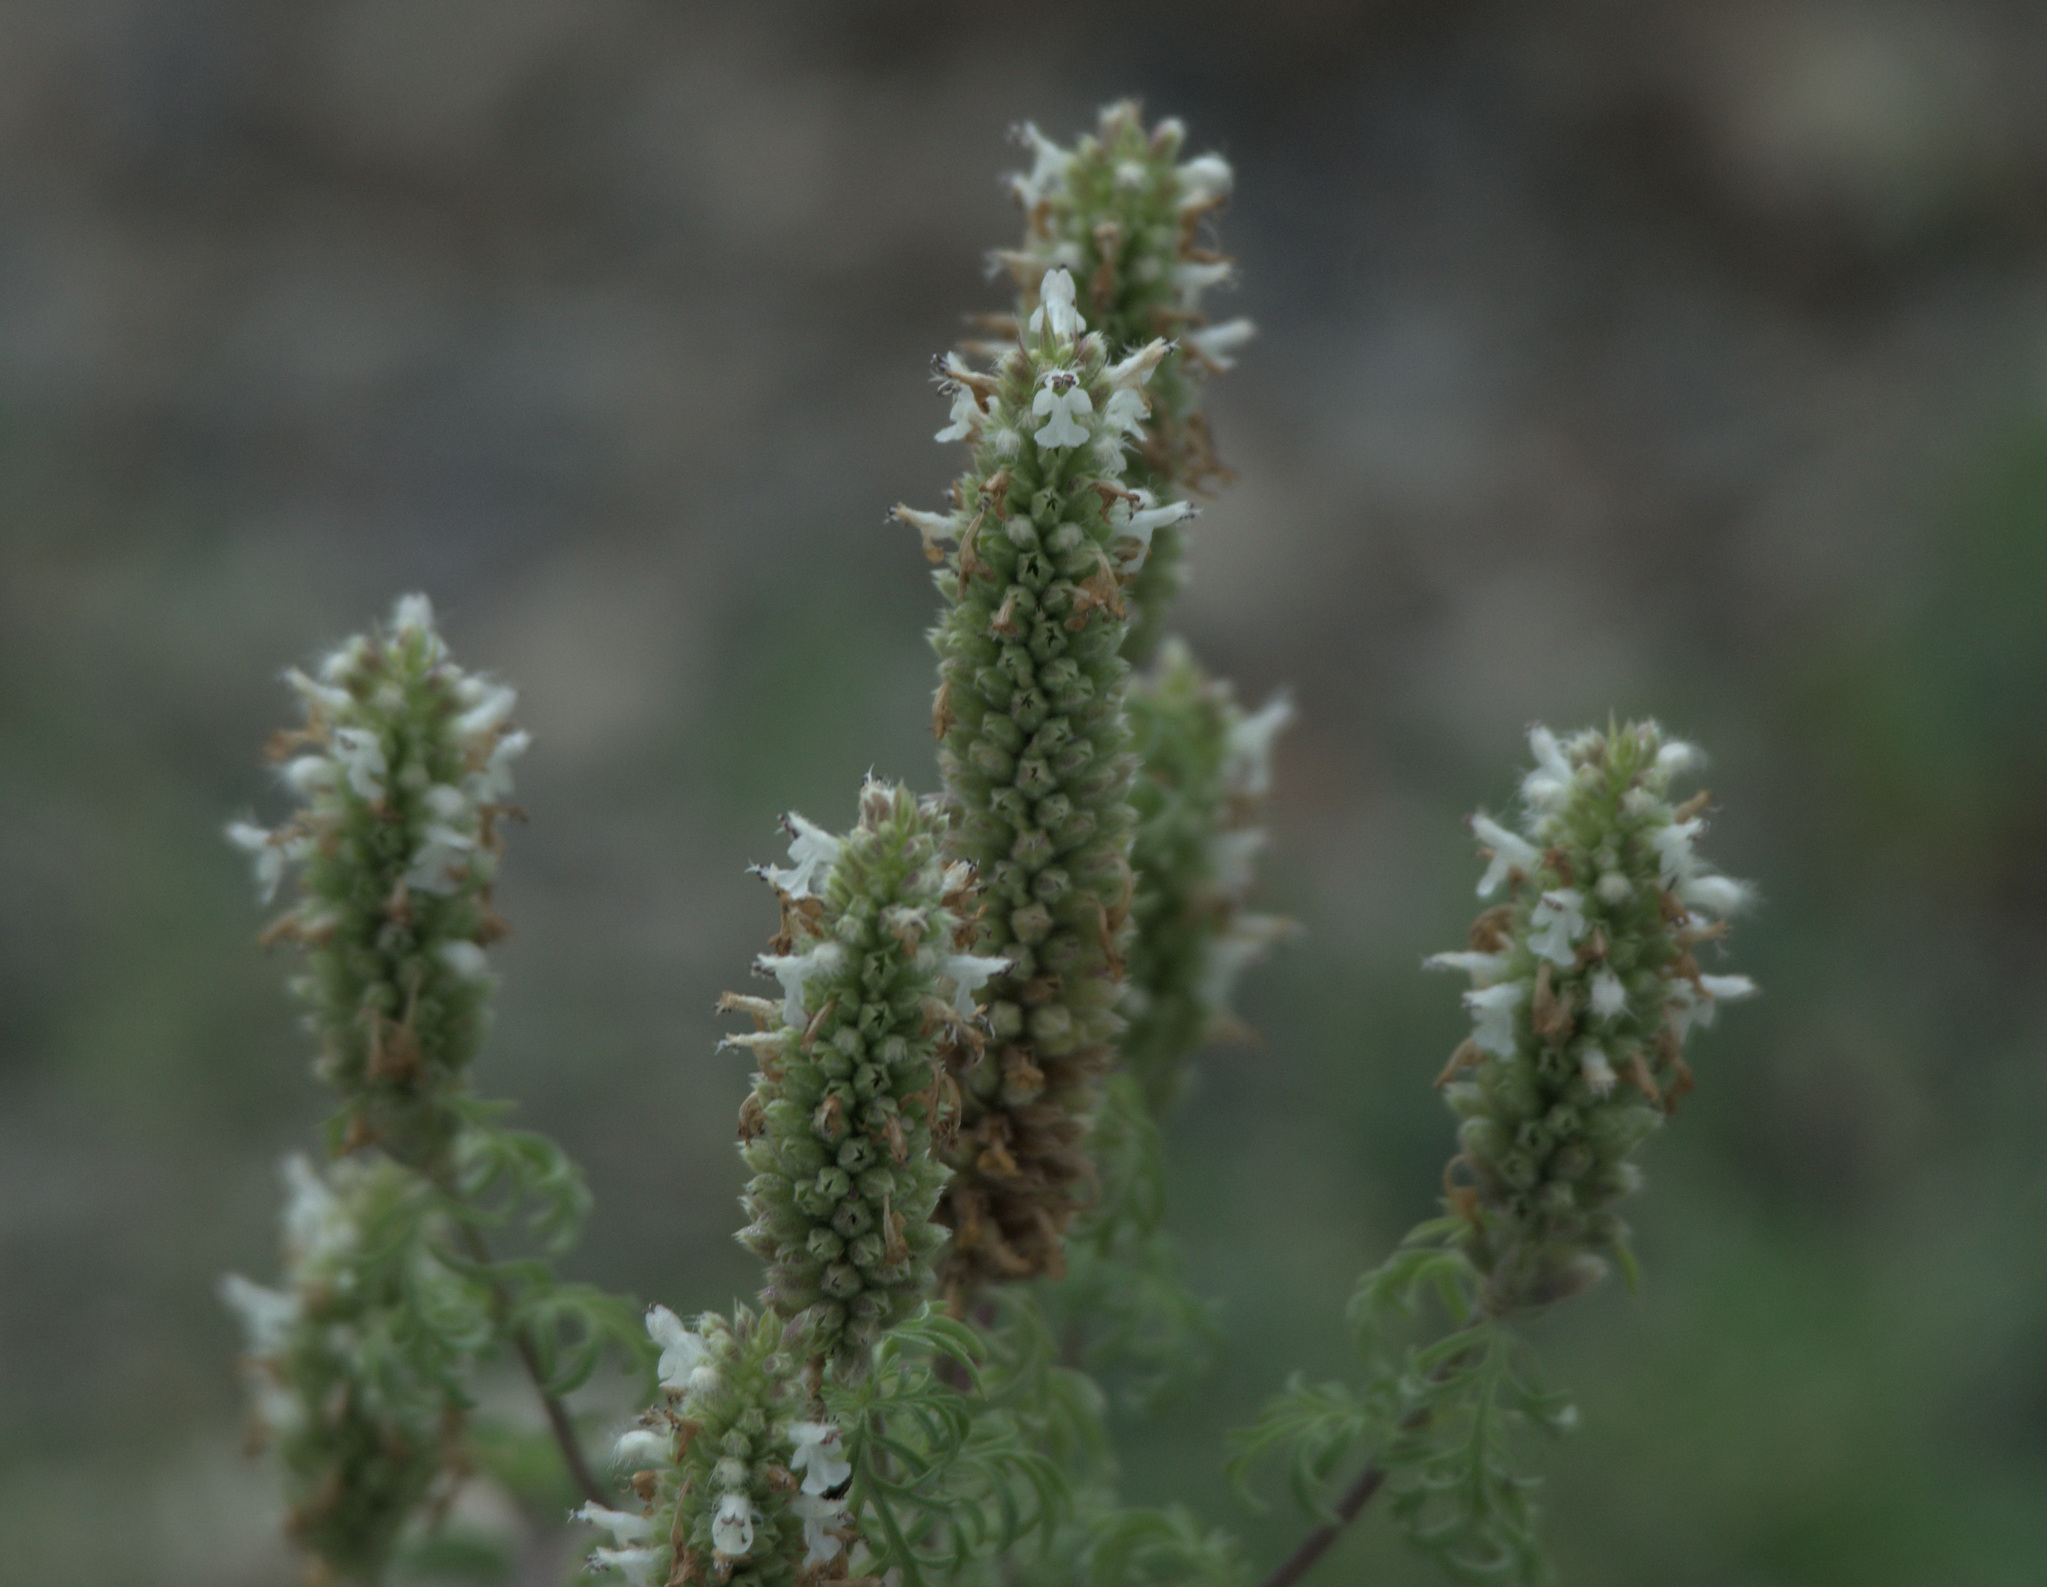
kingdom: Plantae
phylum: Tracheophyta
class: Magnoliopsida
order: Lamiales
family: Lamiaceae
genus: Nepeta
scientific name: Nepeta annua
